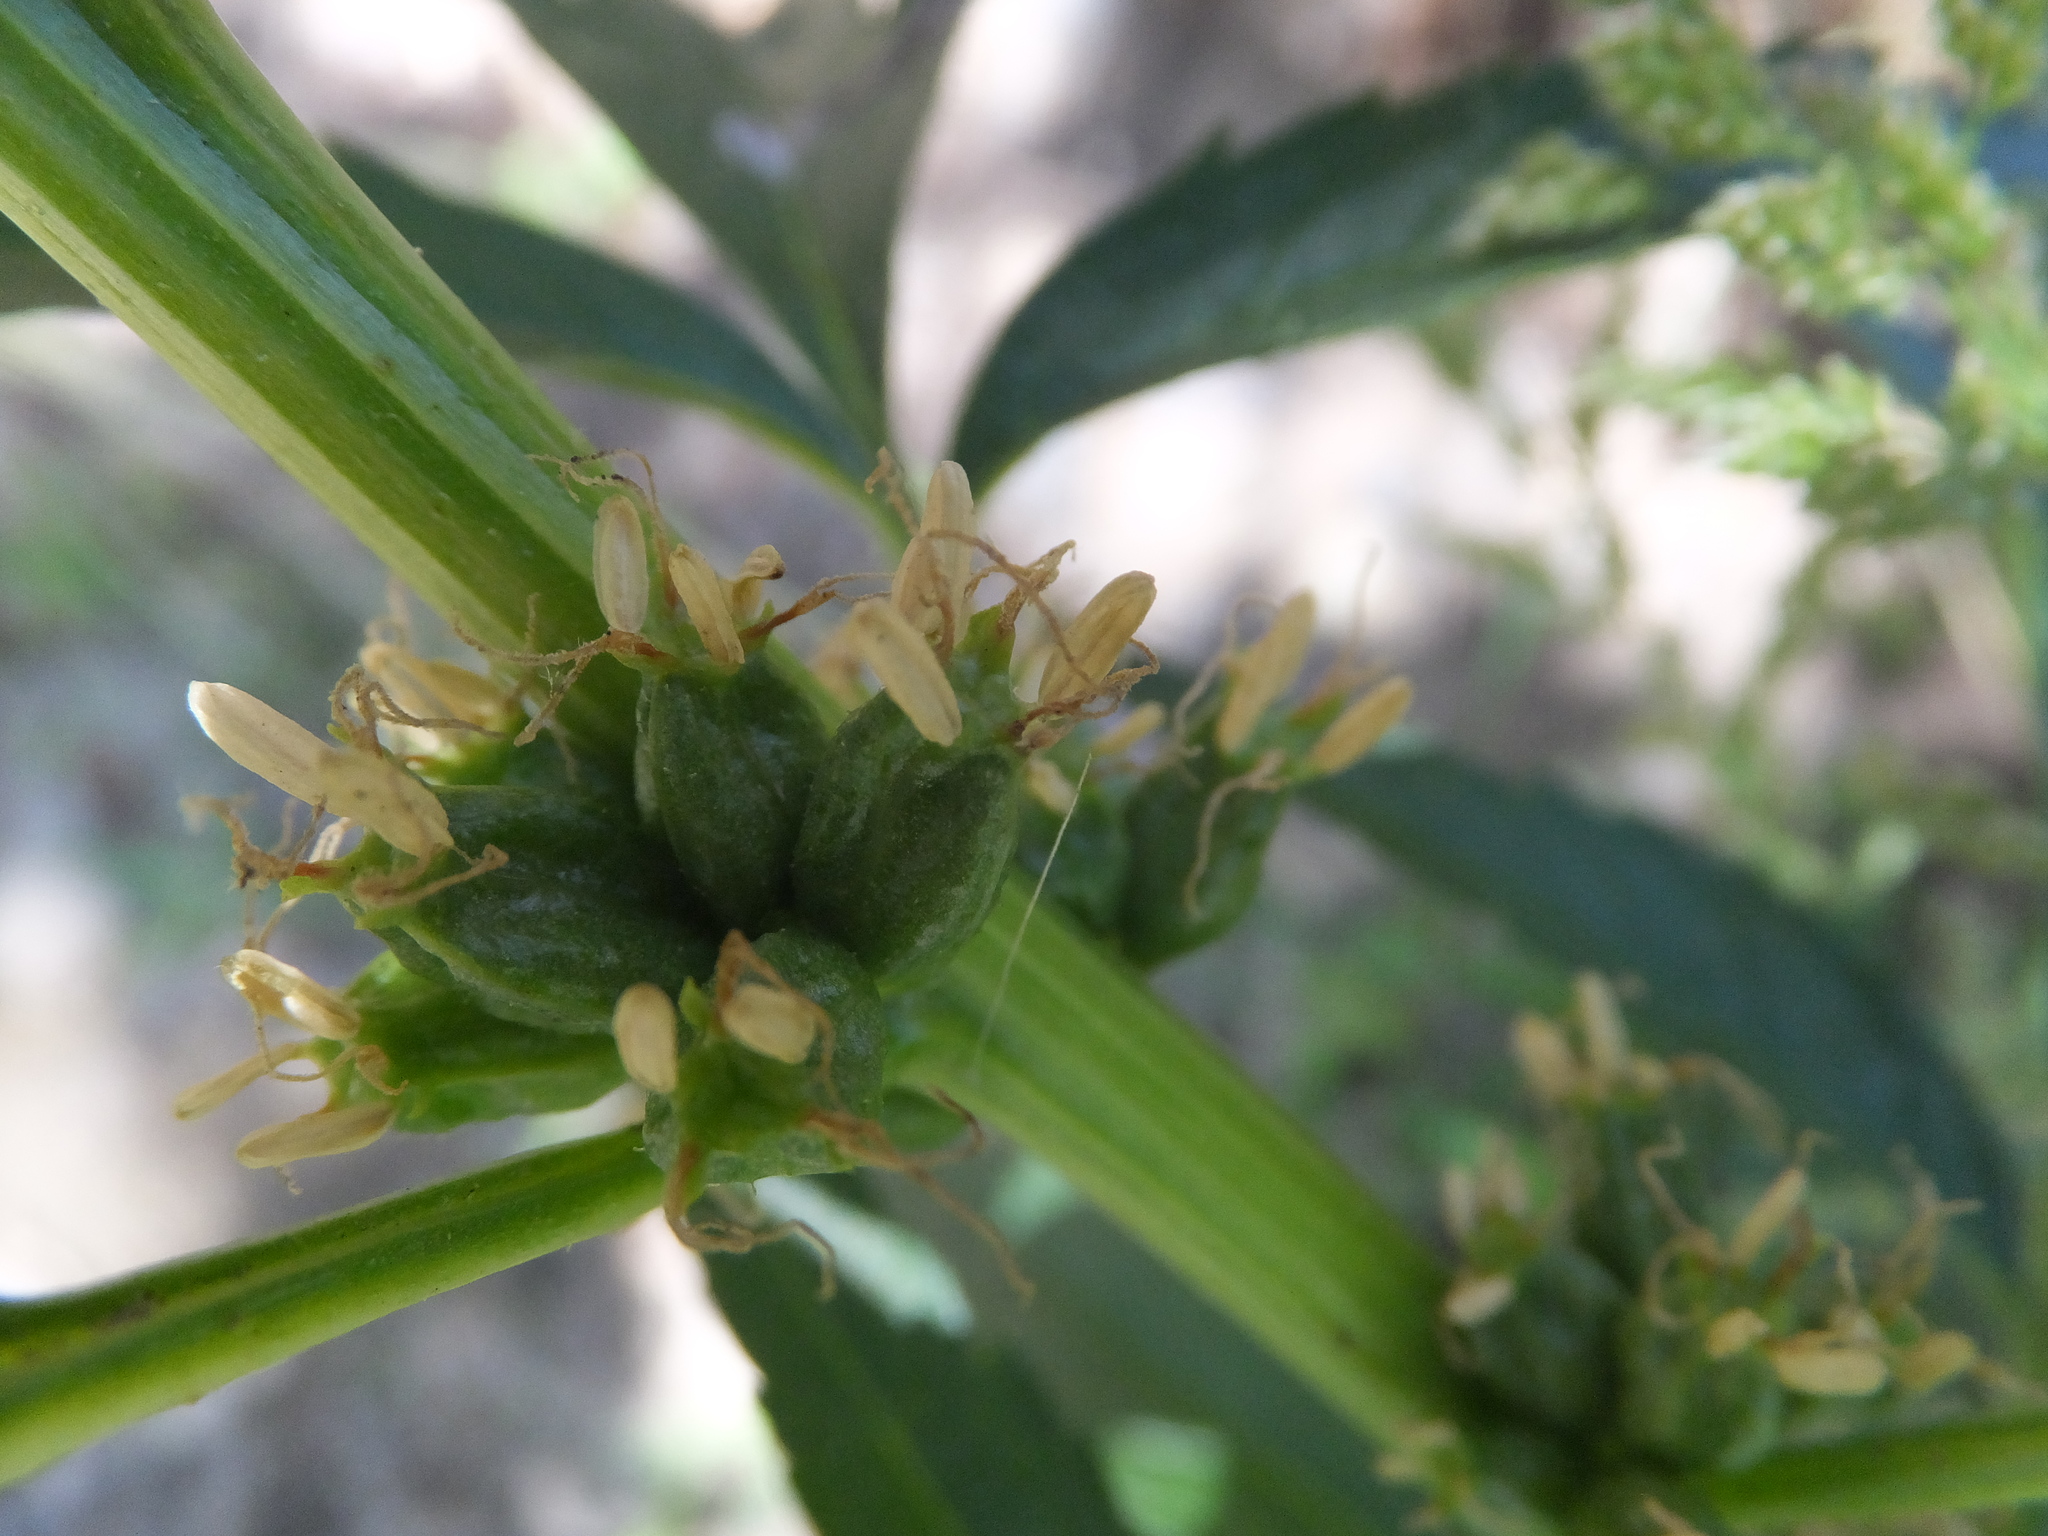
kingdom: Plantae
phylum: Tracheophyta
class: Magnoliopsida
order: Cucurbitales
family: Datiscaceae
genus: Datisca
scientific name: Datisca glomerata
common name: Durango-root
